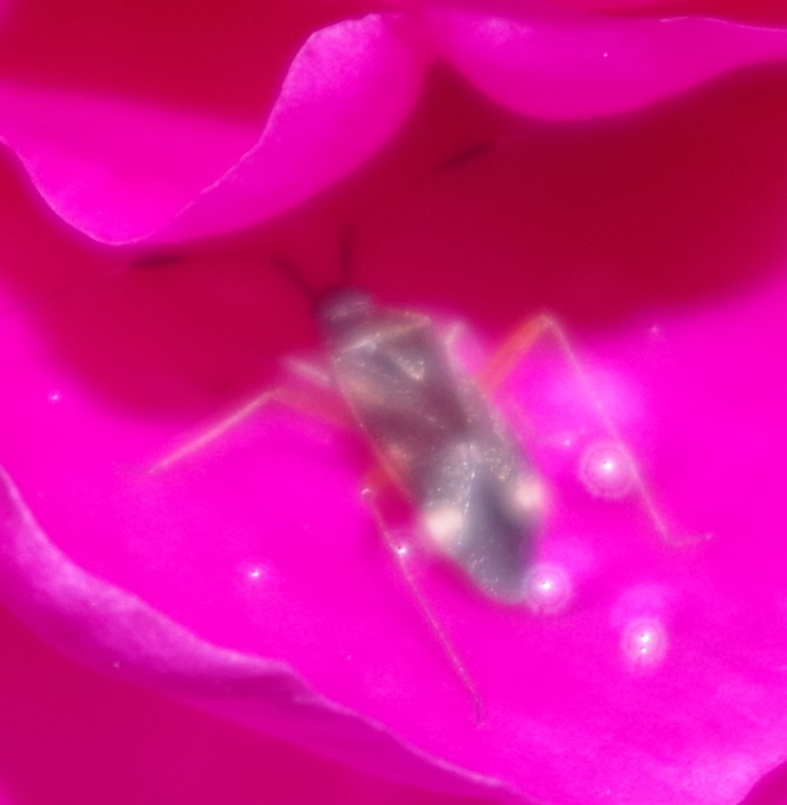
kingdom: Animalia
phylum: Arthropoda
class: Insecta
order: Hemiptera
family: Miridae
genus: Closterotomus
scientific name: Closterotomus biclavatus
